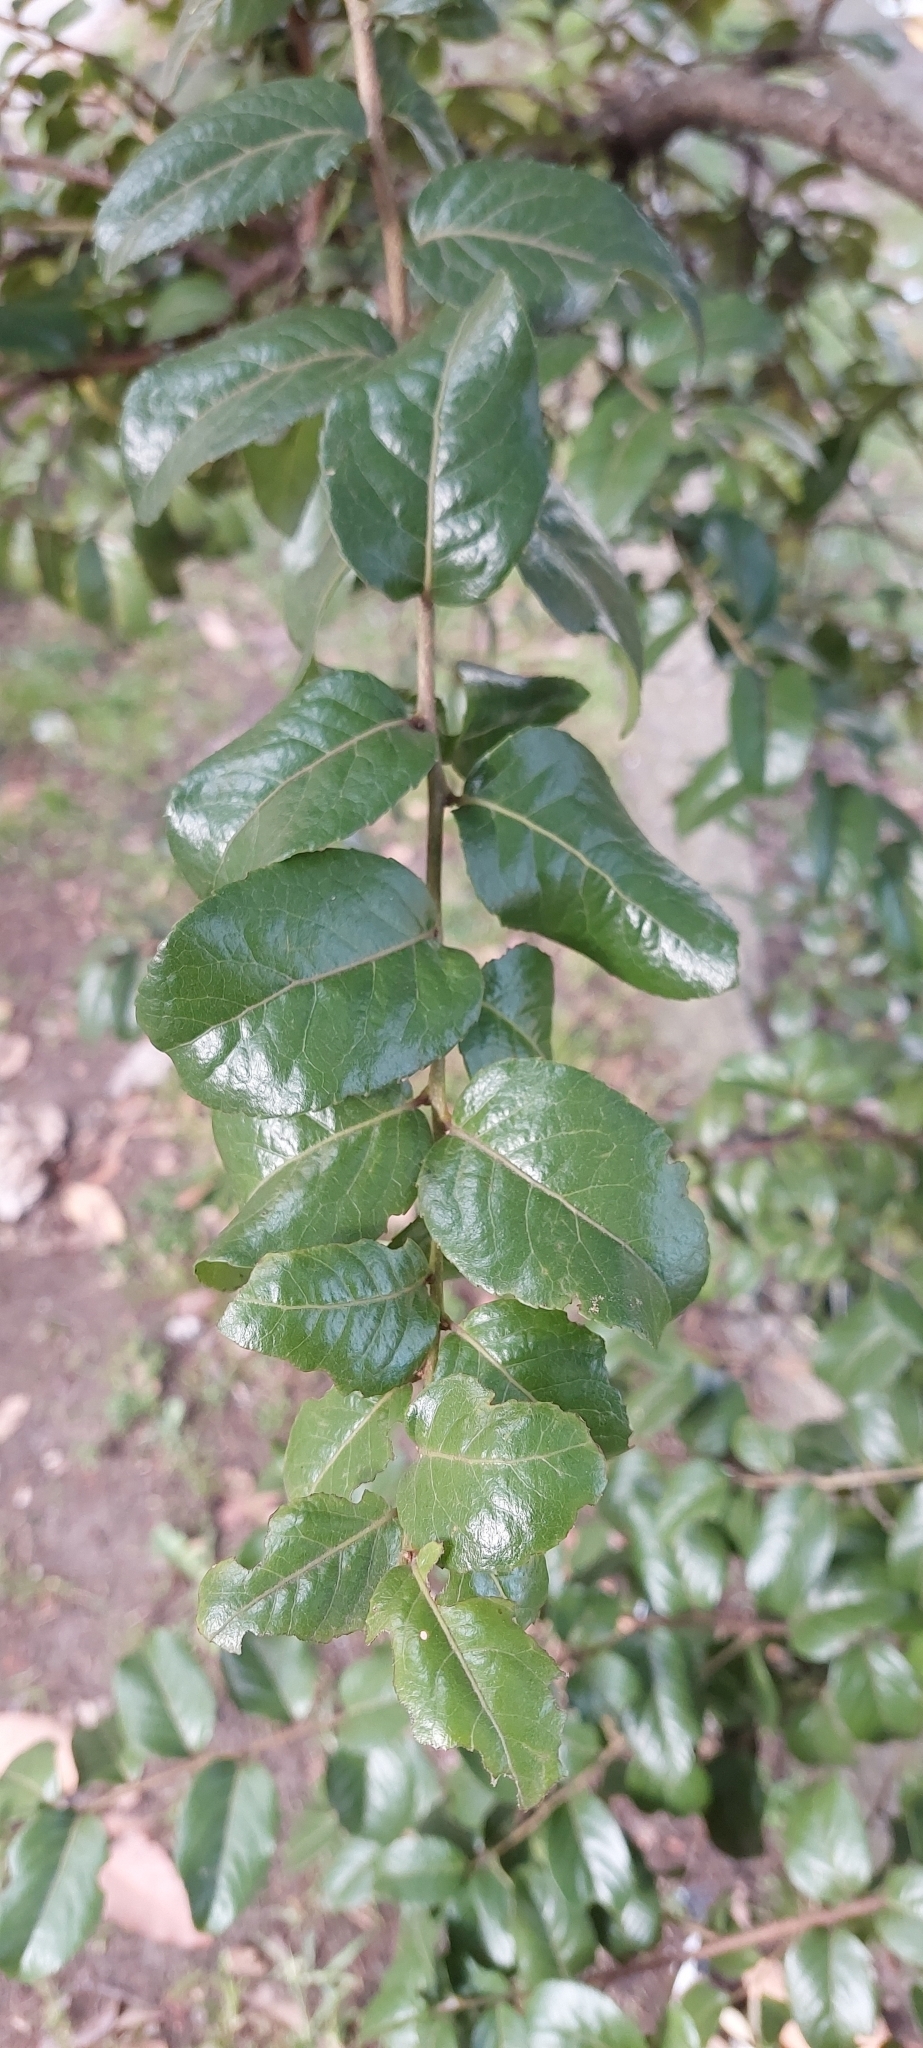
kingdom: Plantae
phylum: Tracheophyta
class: Magnoliopsida
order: Malpighiales
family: Salicaceae
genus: Xylosma
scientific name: Xylosma spiculifera
